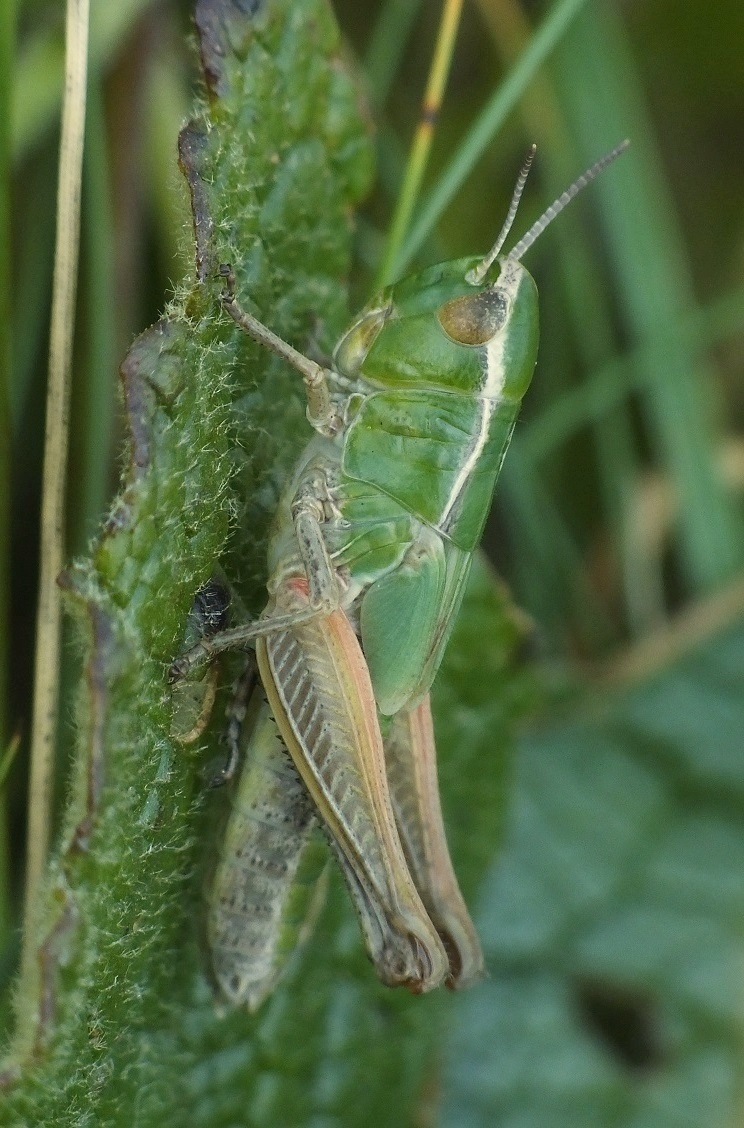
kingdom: Animalia
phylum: Arthropoda
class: Insecta
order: Orthoptera
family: Acrididae
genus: Stenobothrus
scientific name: Stenobothrus lineatus
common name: Stripe-winged grasshopper
